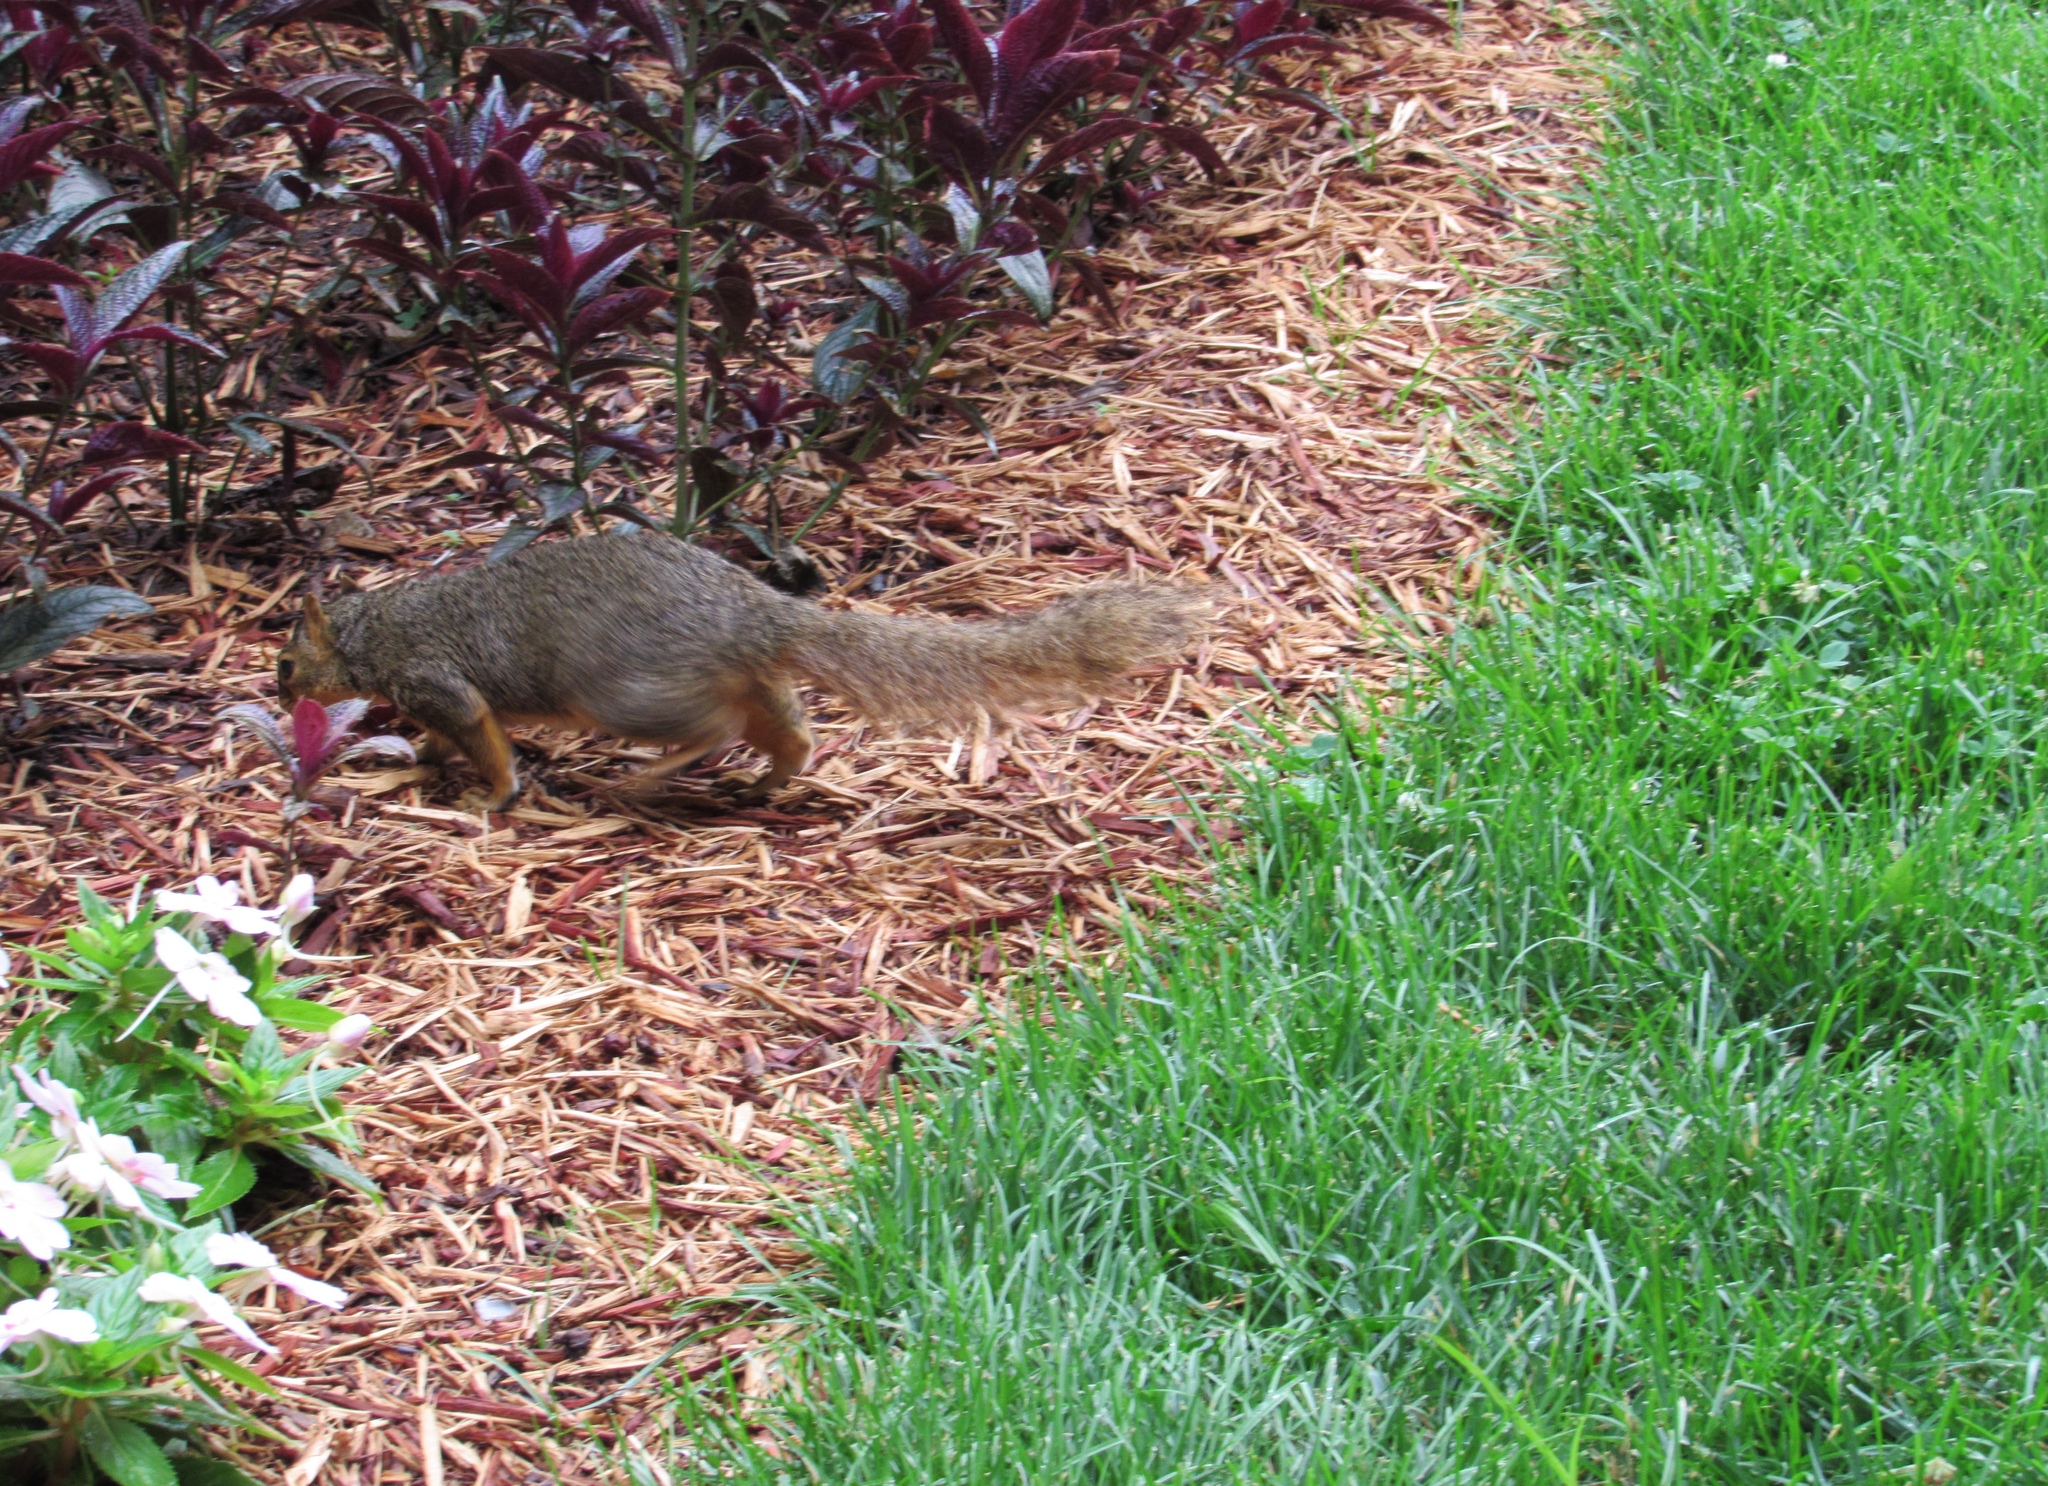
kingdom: Animalia
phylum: Chordata
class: Mammalia
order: Rodentia
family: Sciuridae
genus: Sciurus
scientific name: Sciurus niger
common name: Fox squirrel
